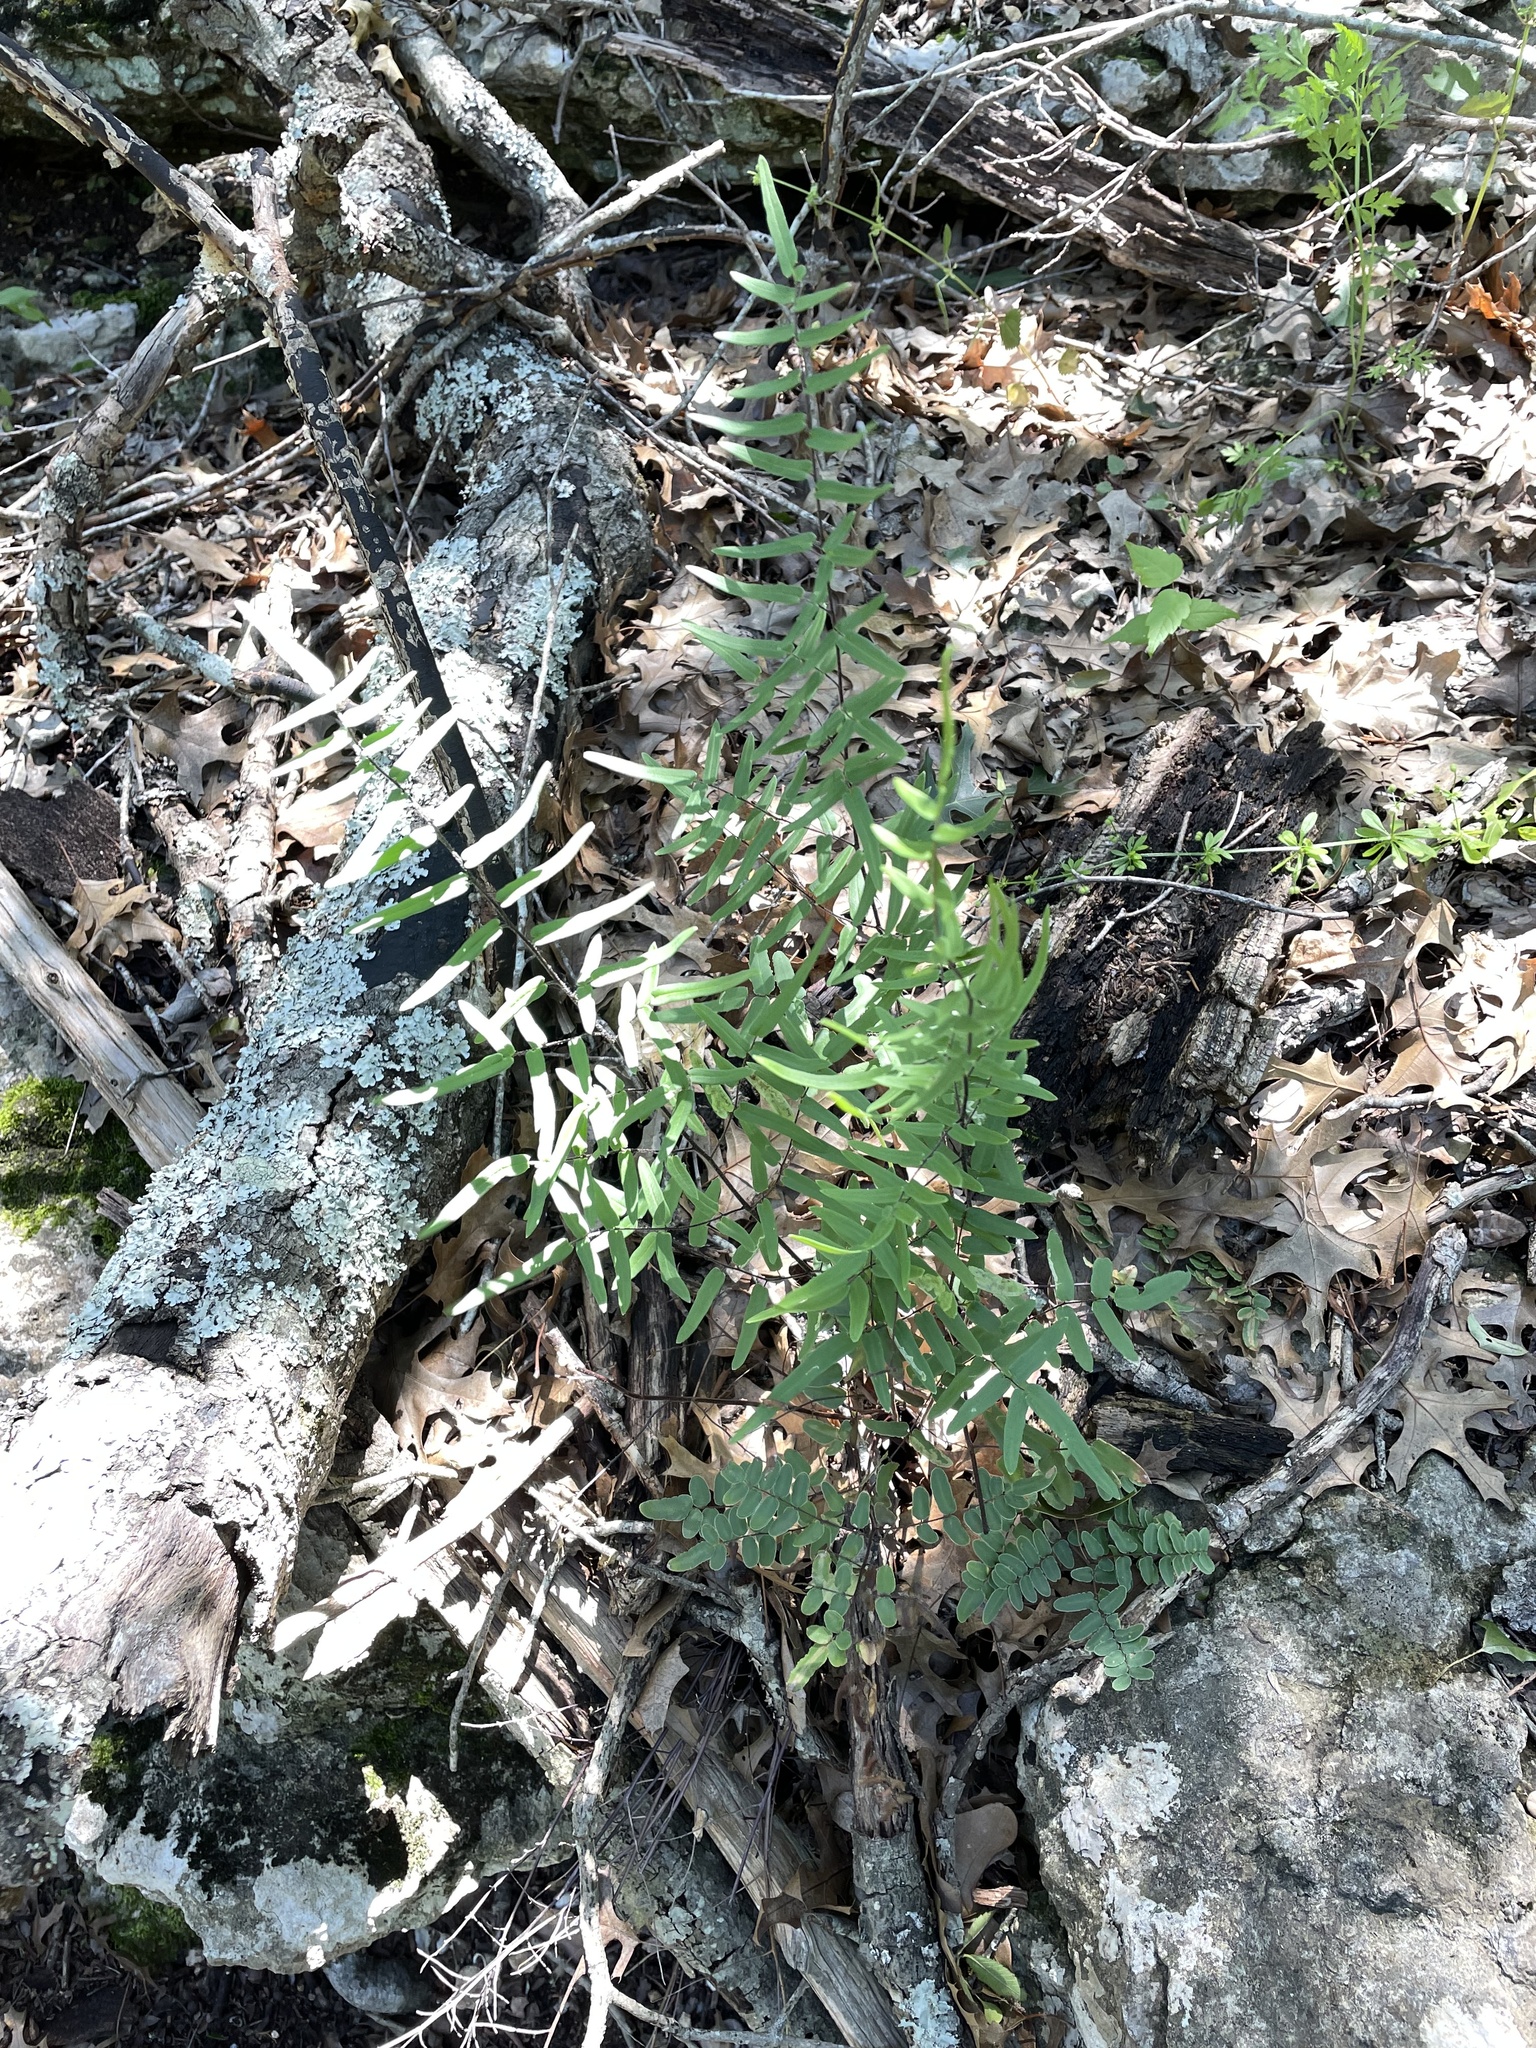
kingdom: Plantae
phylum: Tracheophyta
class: Polypodiopsida
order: Polypodiales
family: Pteridaceae
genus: Pellaea
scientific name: Pellaea atropurpurea
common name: Hairy cliffbrake
